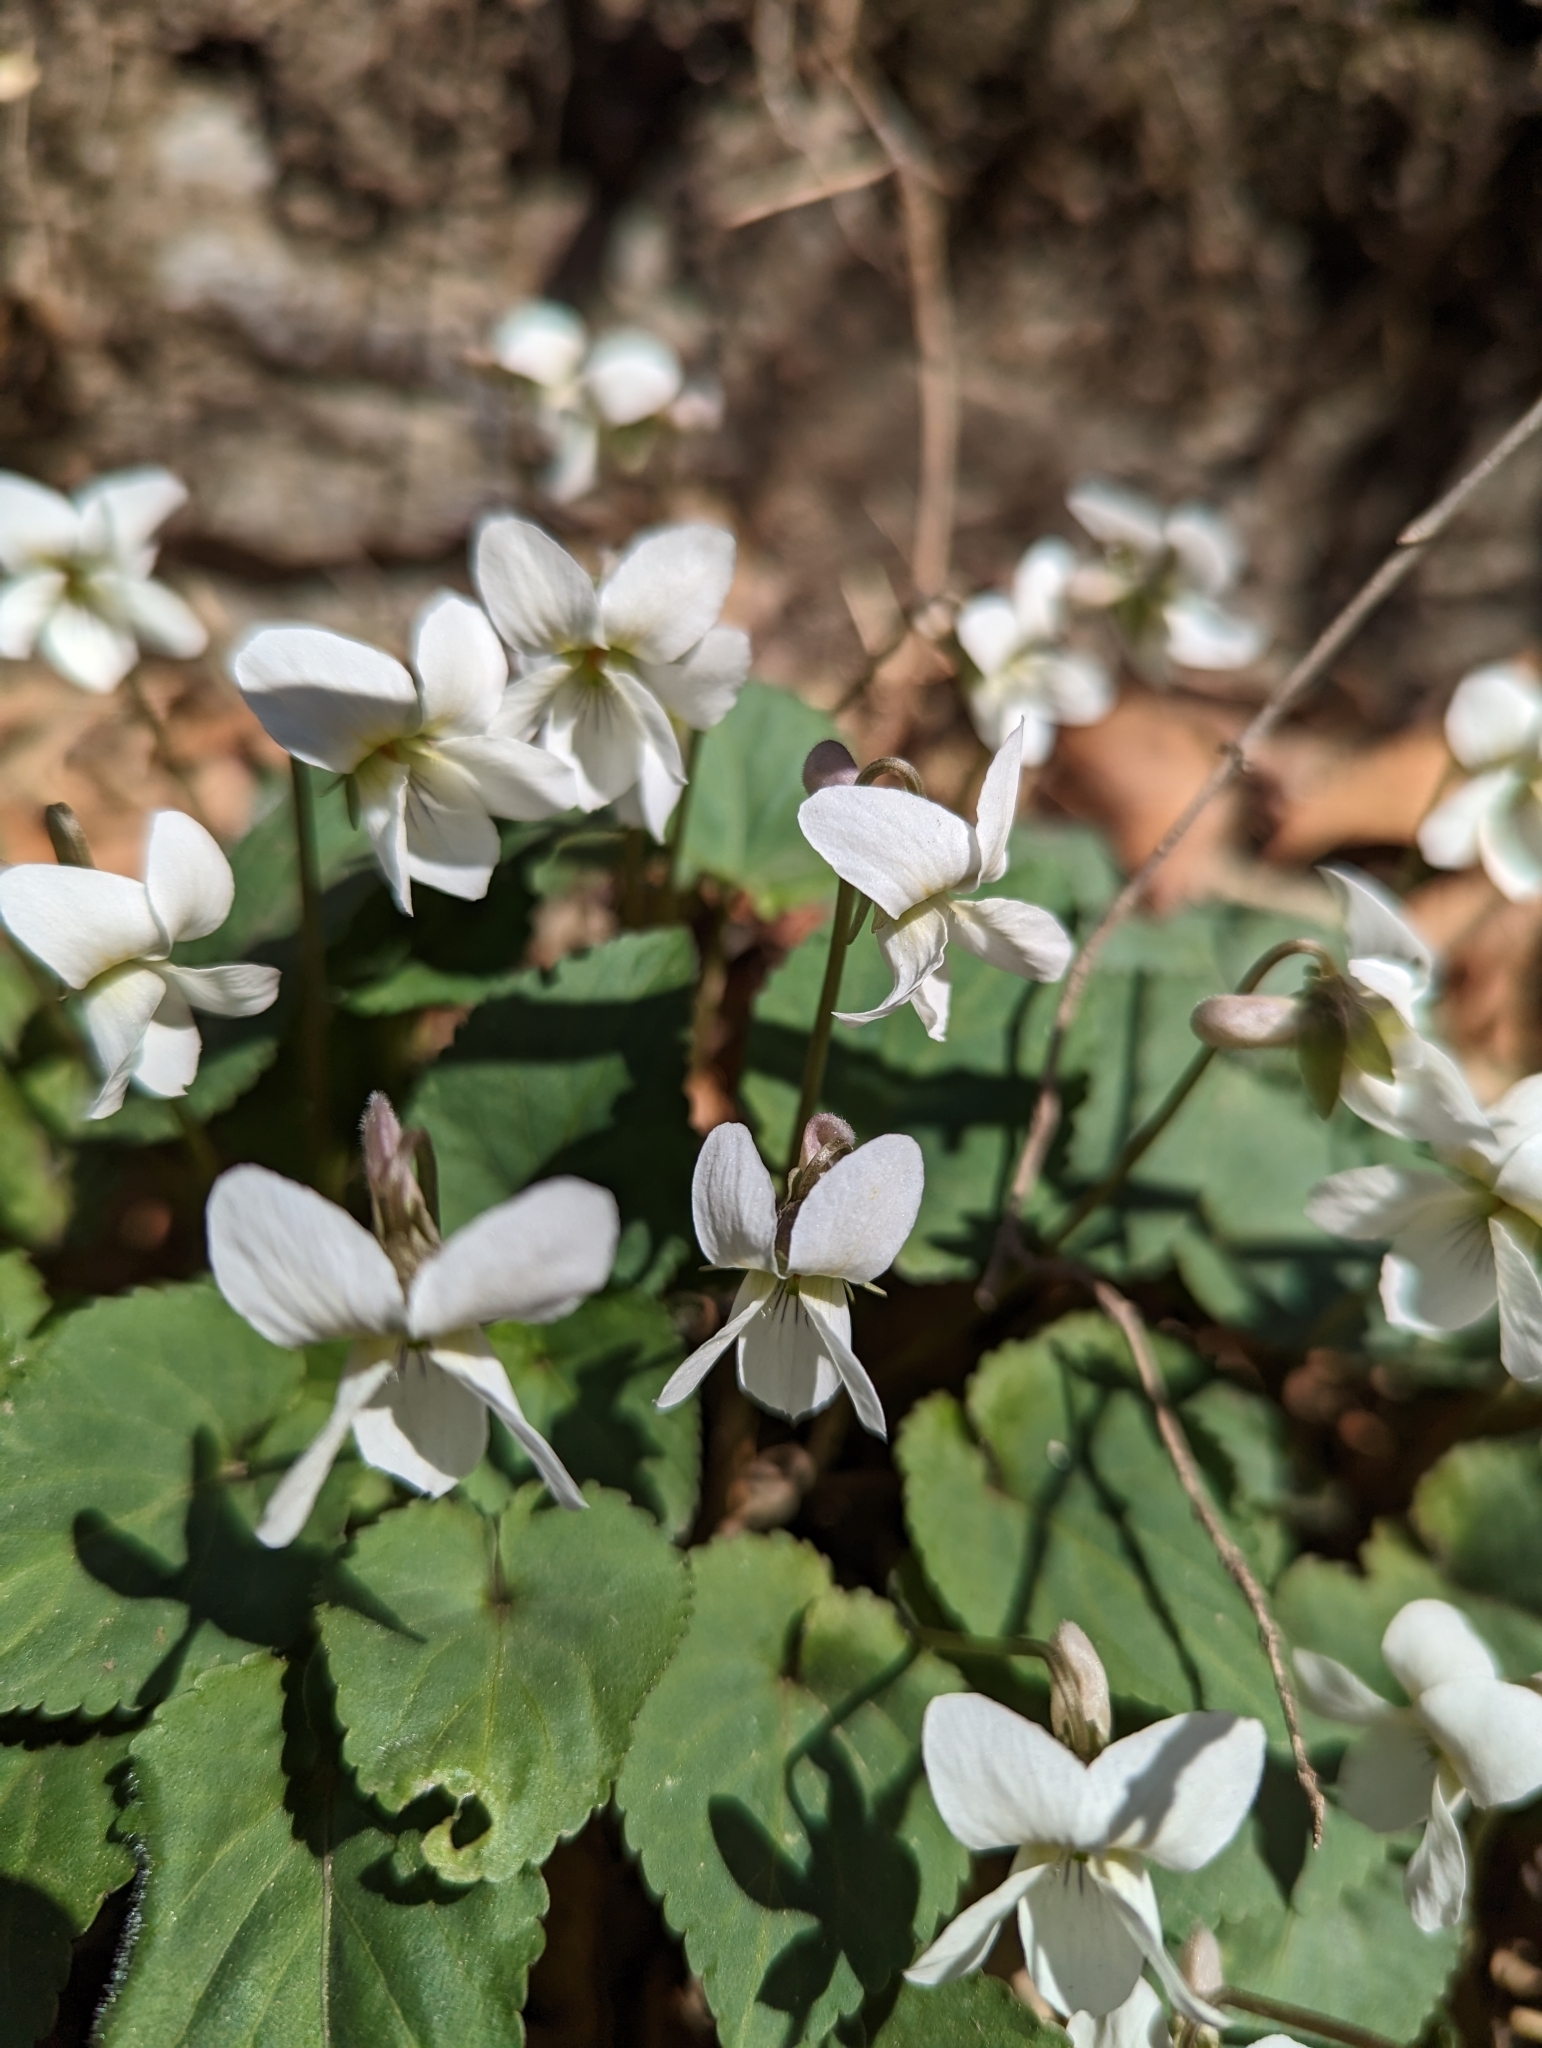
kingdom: Plantae
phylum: Tracheophyta
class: Magnoliopsida
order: Malpighiales
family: Violaceae
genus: Viola
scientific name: Viola pekinensis
